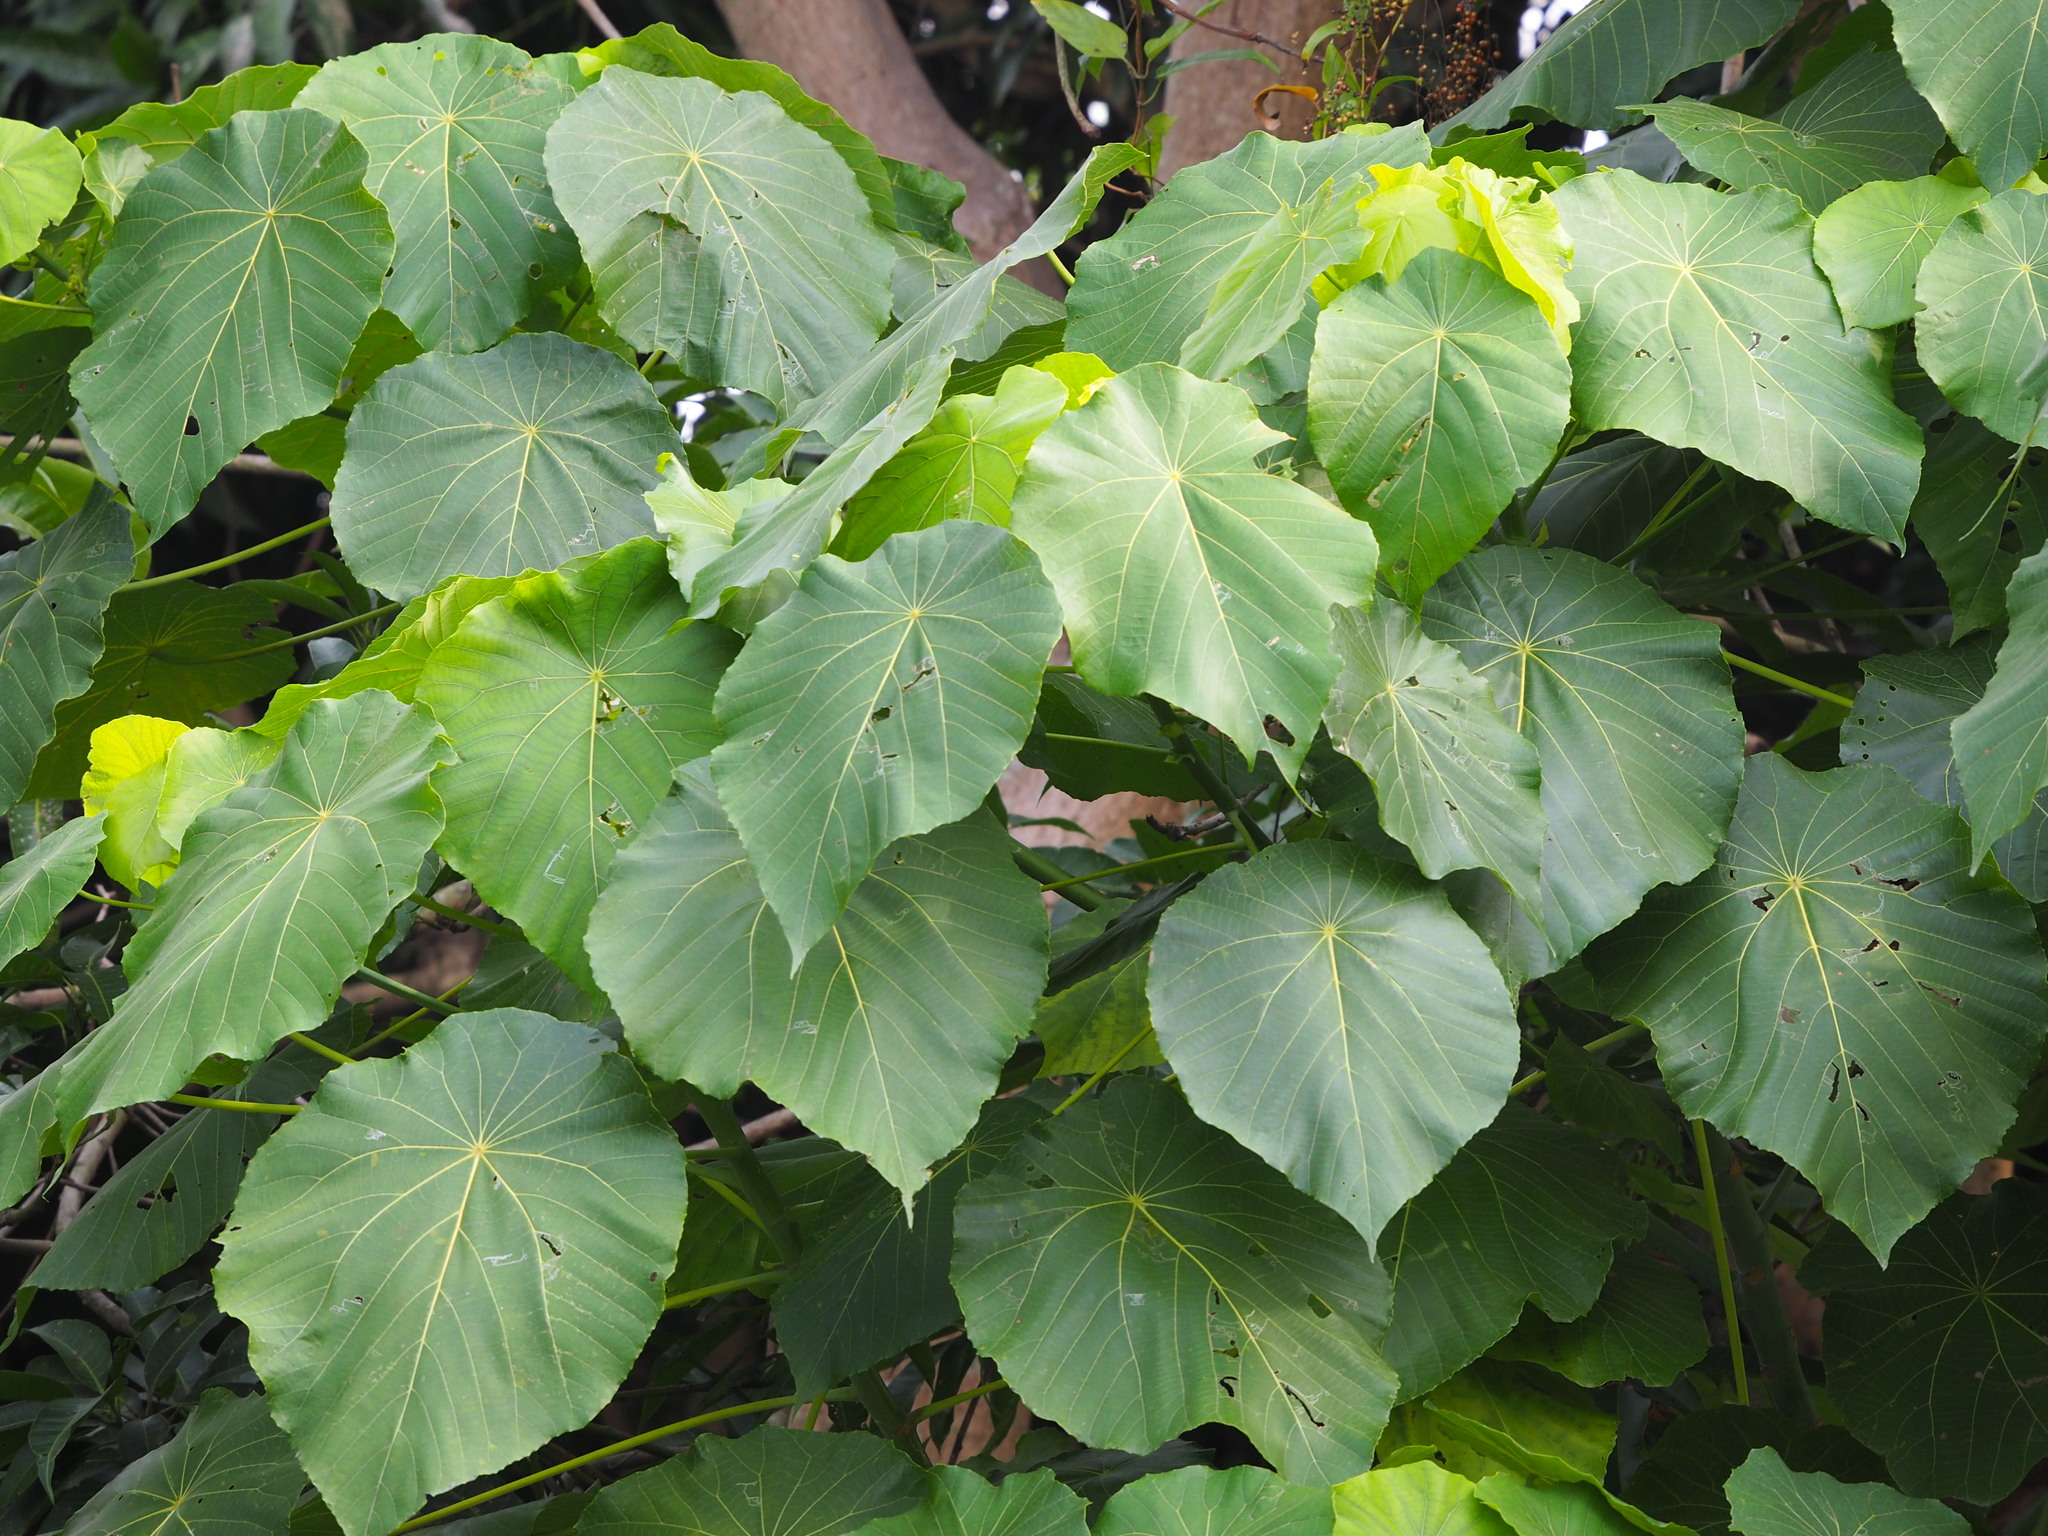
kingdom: Plantae
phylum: Tracheophyta
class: Magnoliopsida
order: Malpighiales
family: Euphorbiaceae
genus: Macaranga
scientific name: Macaranga tanarius
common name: Parasol leaf tree
